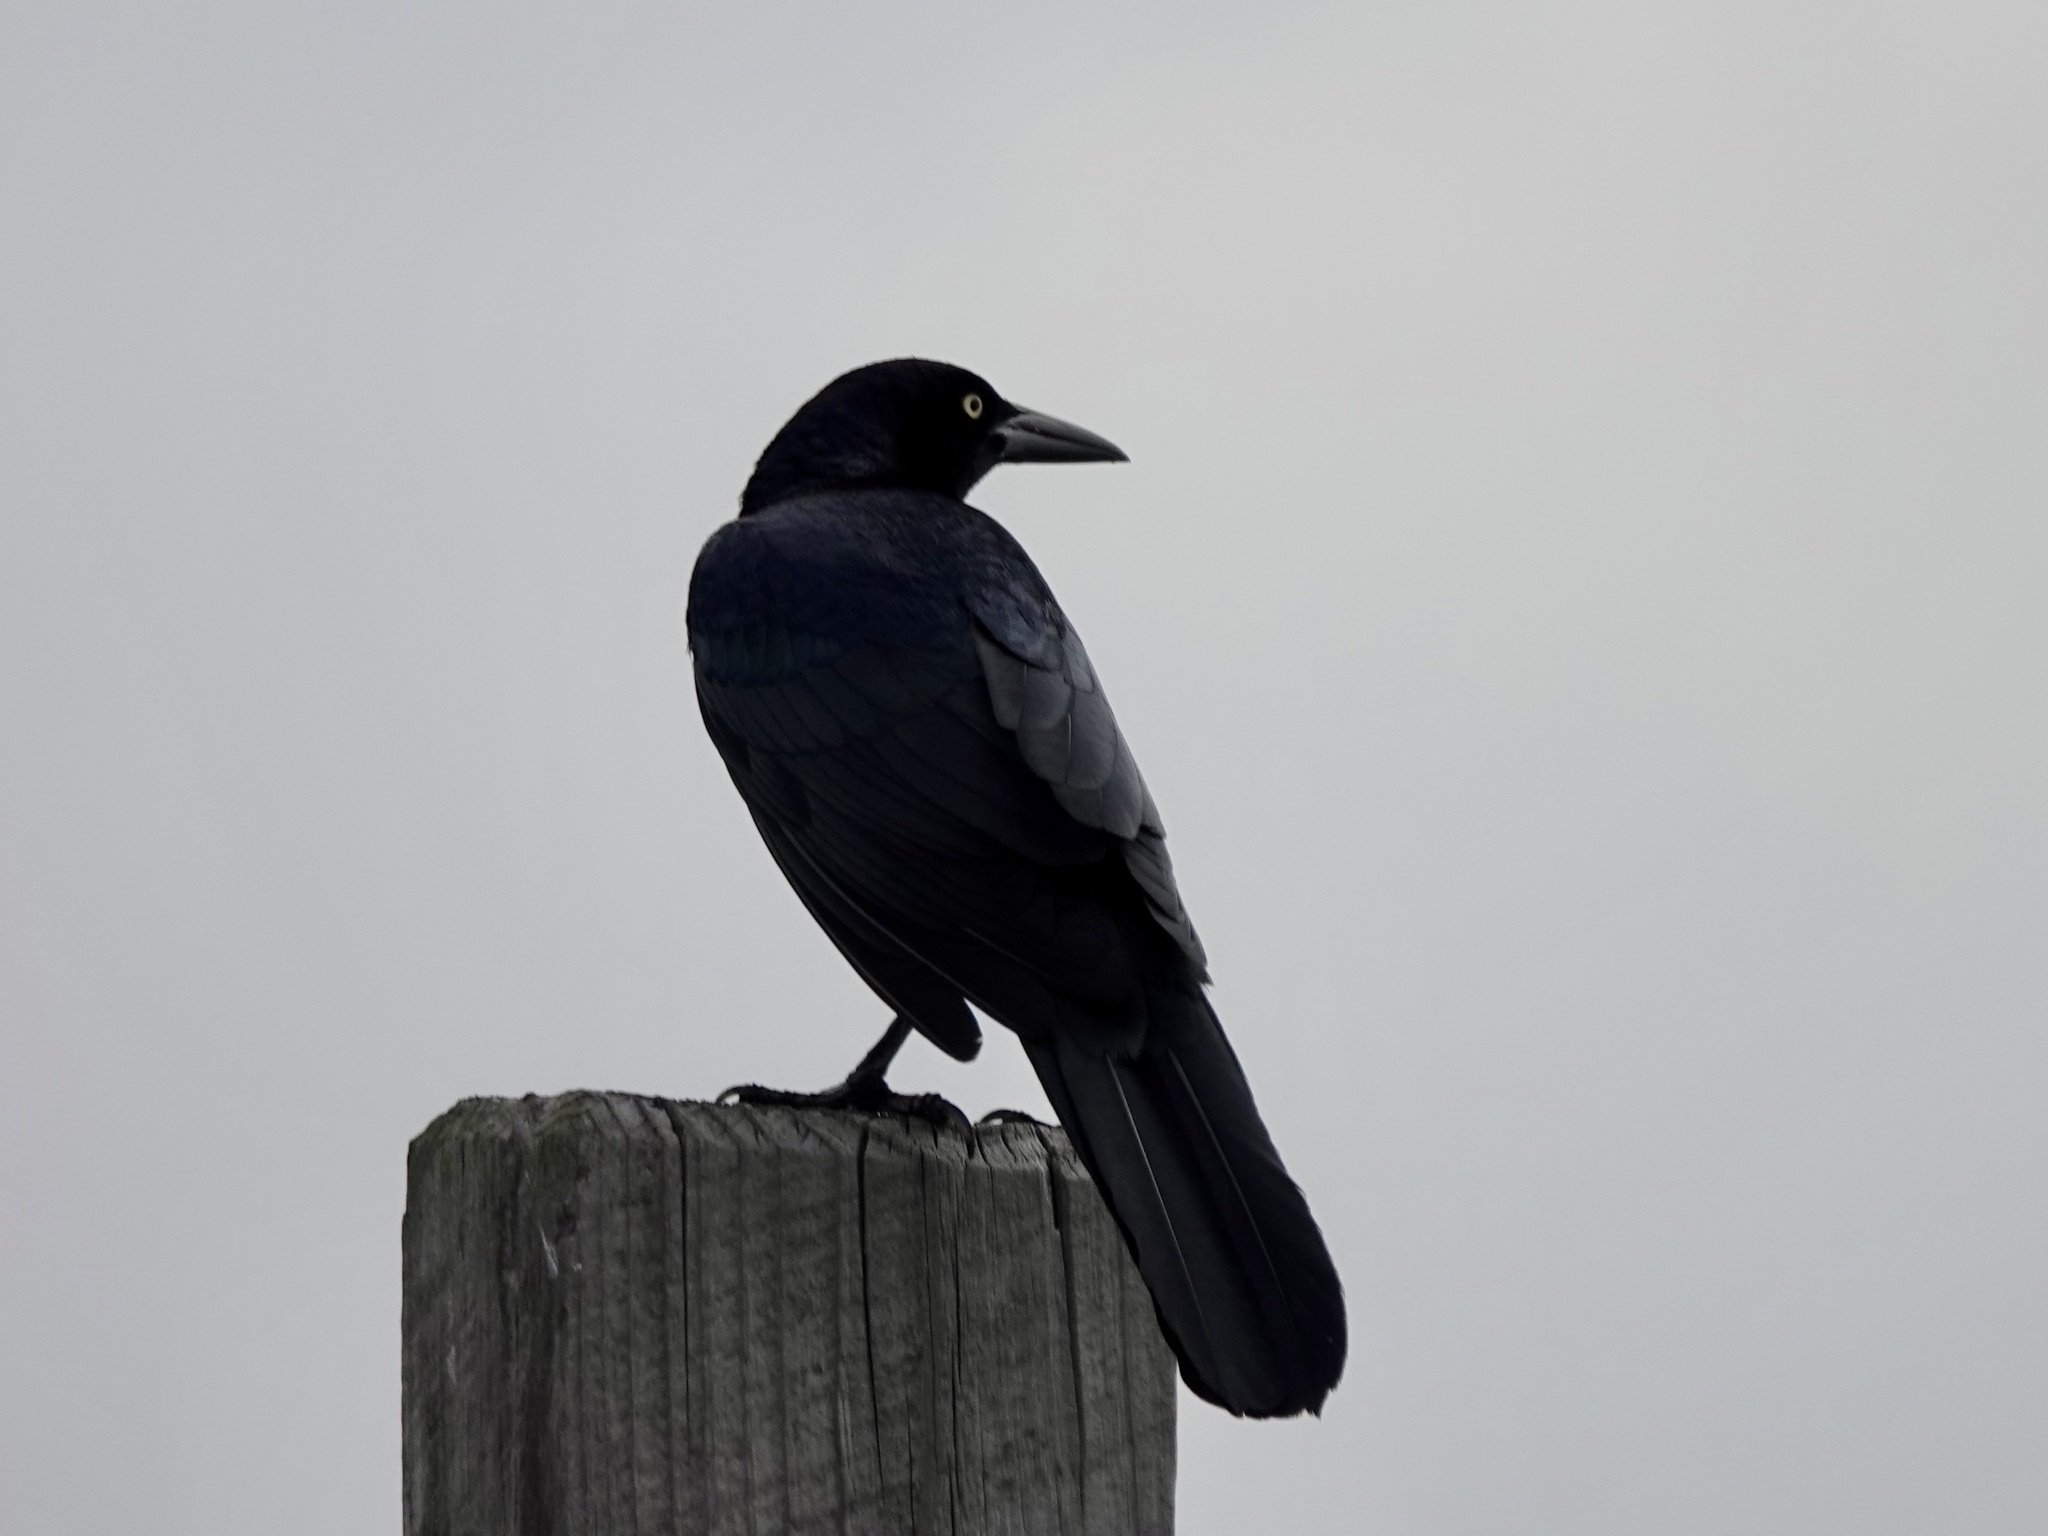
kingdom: Animalia
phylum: Chordata
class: Aves
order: Passeriformes
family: Icteridae
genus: Quiscalus
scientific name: Quiscalus mexicanus
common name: Great-tailed grackle
